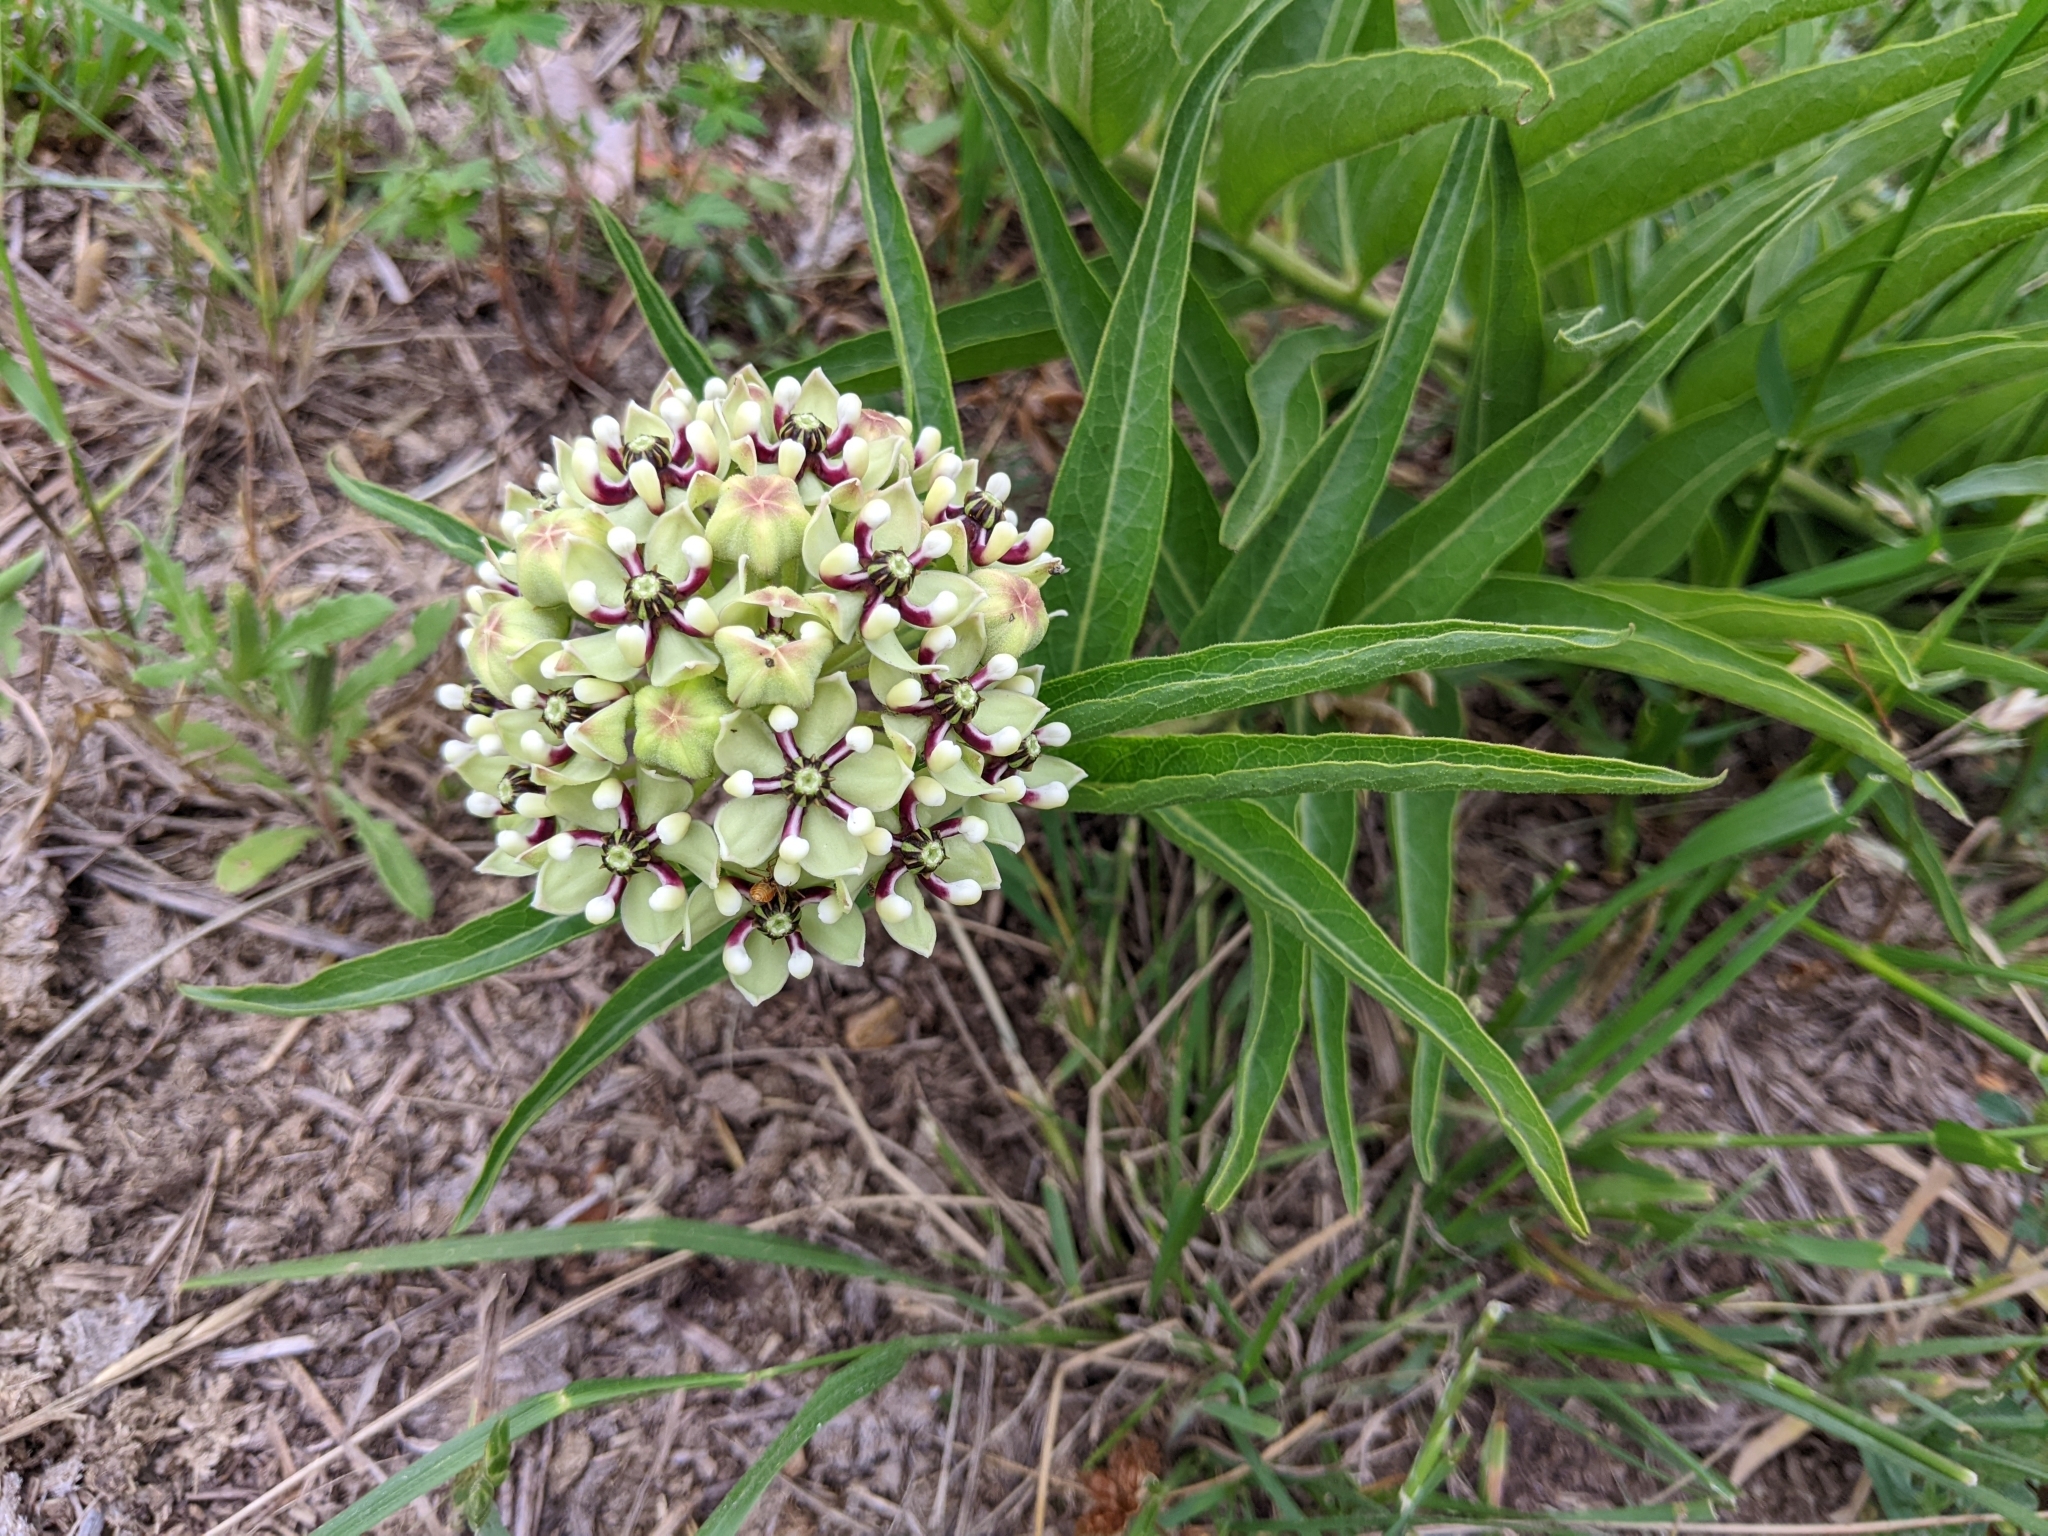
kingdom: Plantae
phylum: Tracheophyta
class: Magnoliopsida
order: Gentianales
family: Apocynaceae
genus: Asclepias
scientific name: Asclepias asperula
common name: Antelope horns
